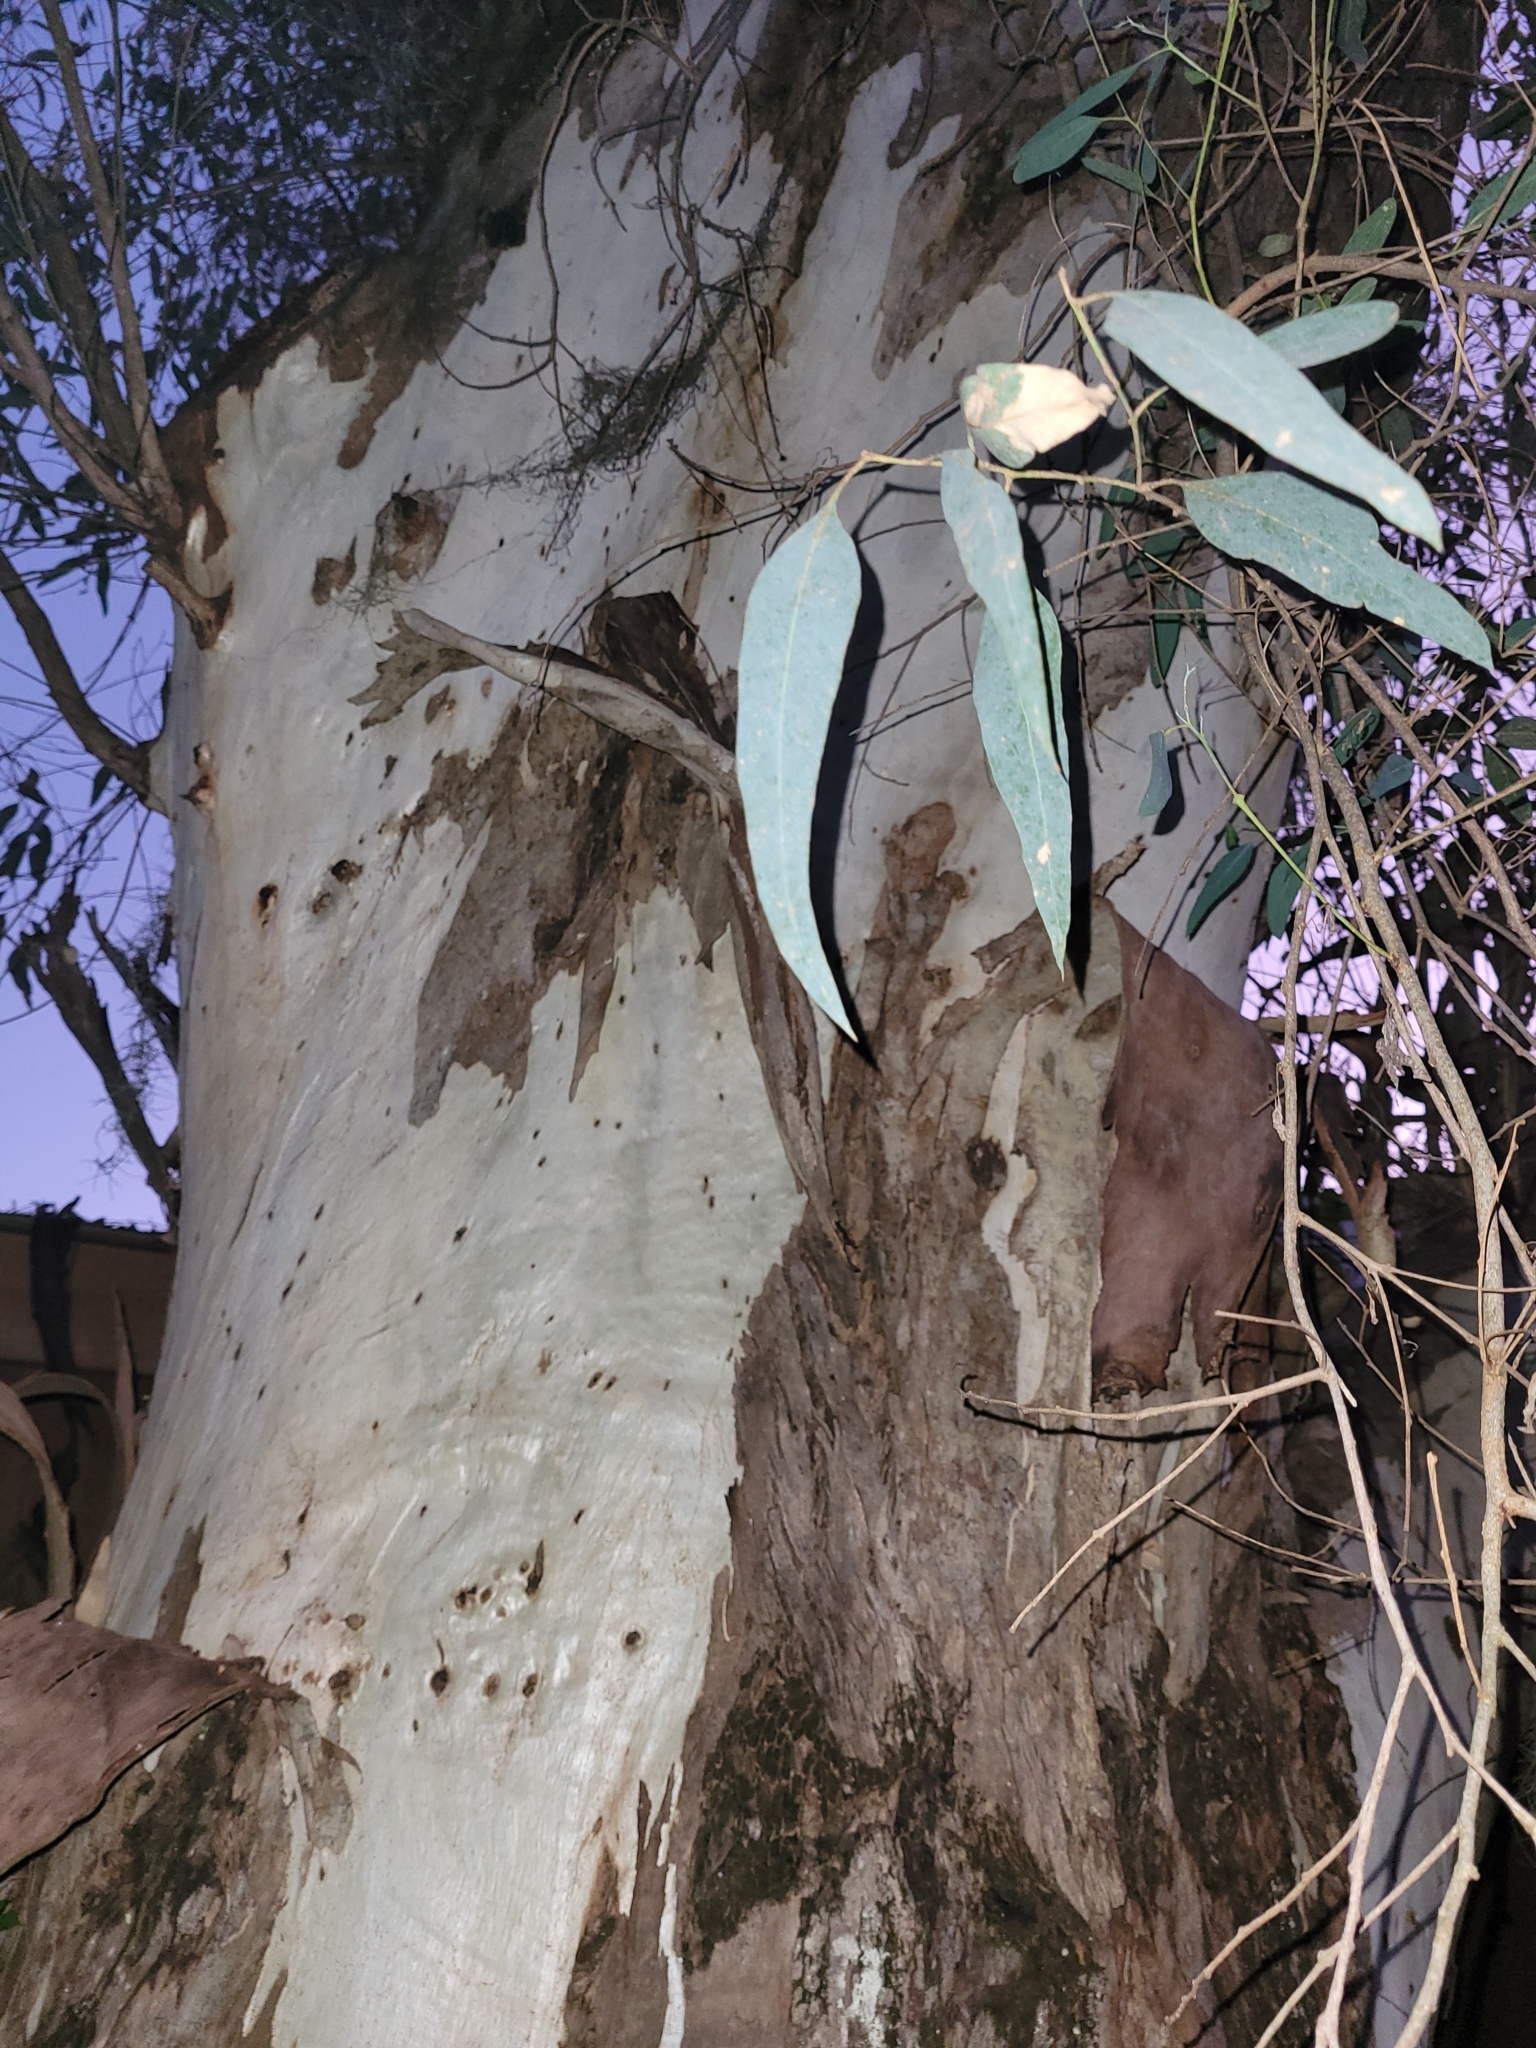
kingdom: Plantae
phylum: Tracheophyta
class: Magnoliopsida
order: Myrtales
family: Myrtaceae
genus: Eucalyptus
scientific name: Eucalyptus camaldulensis
